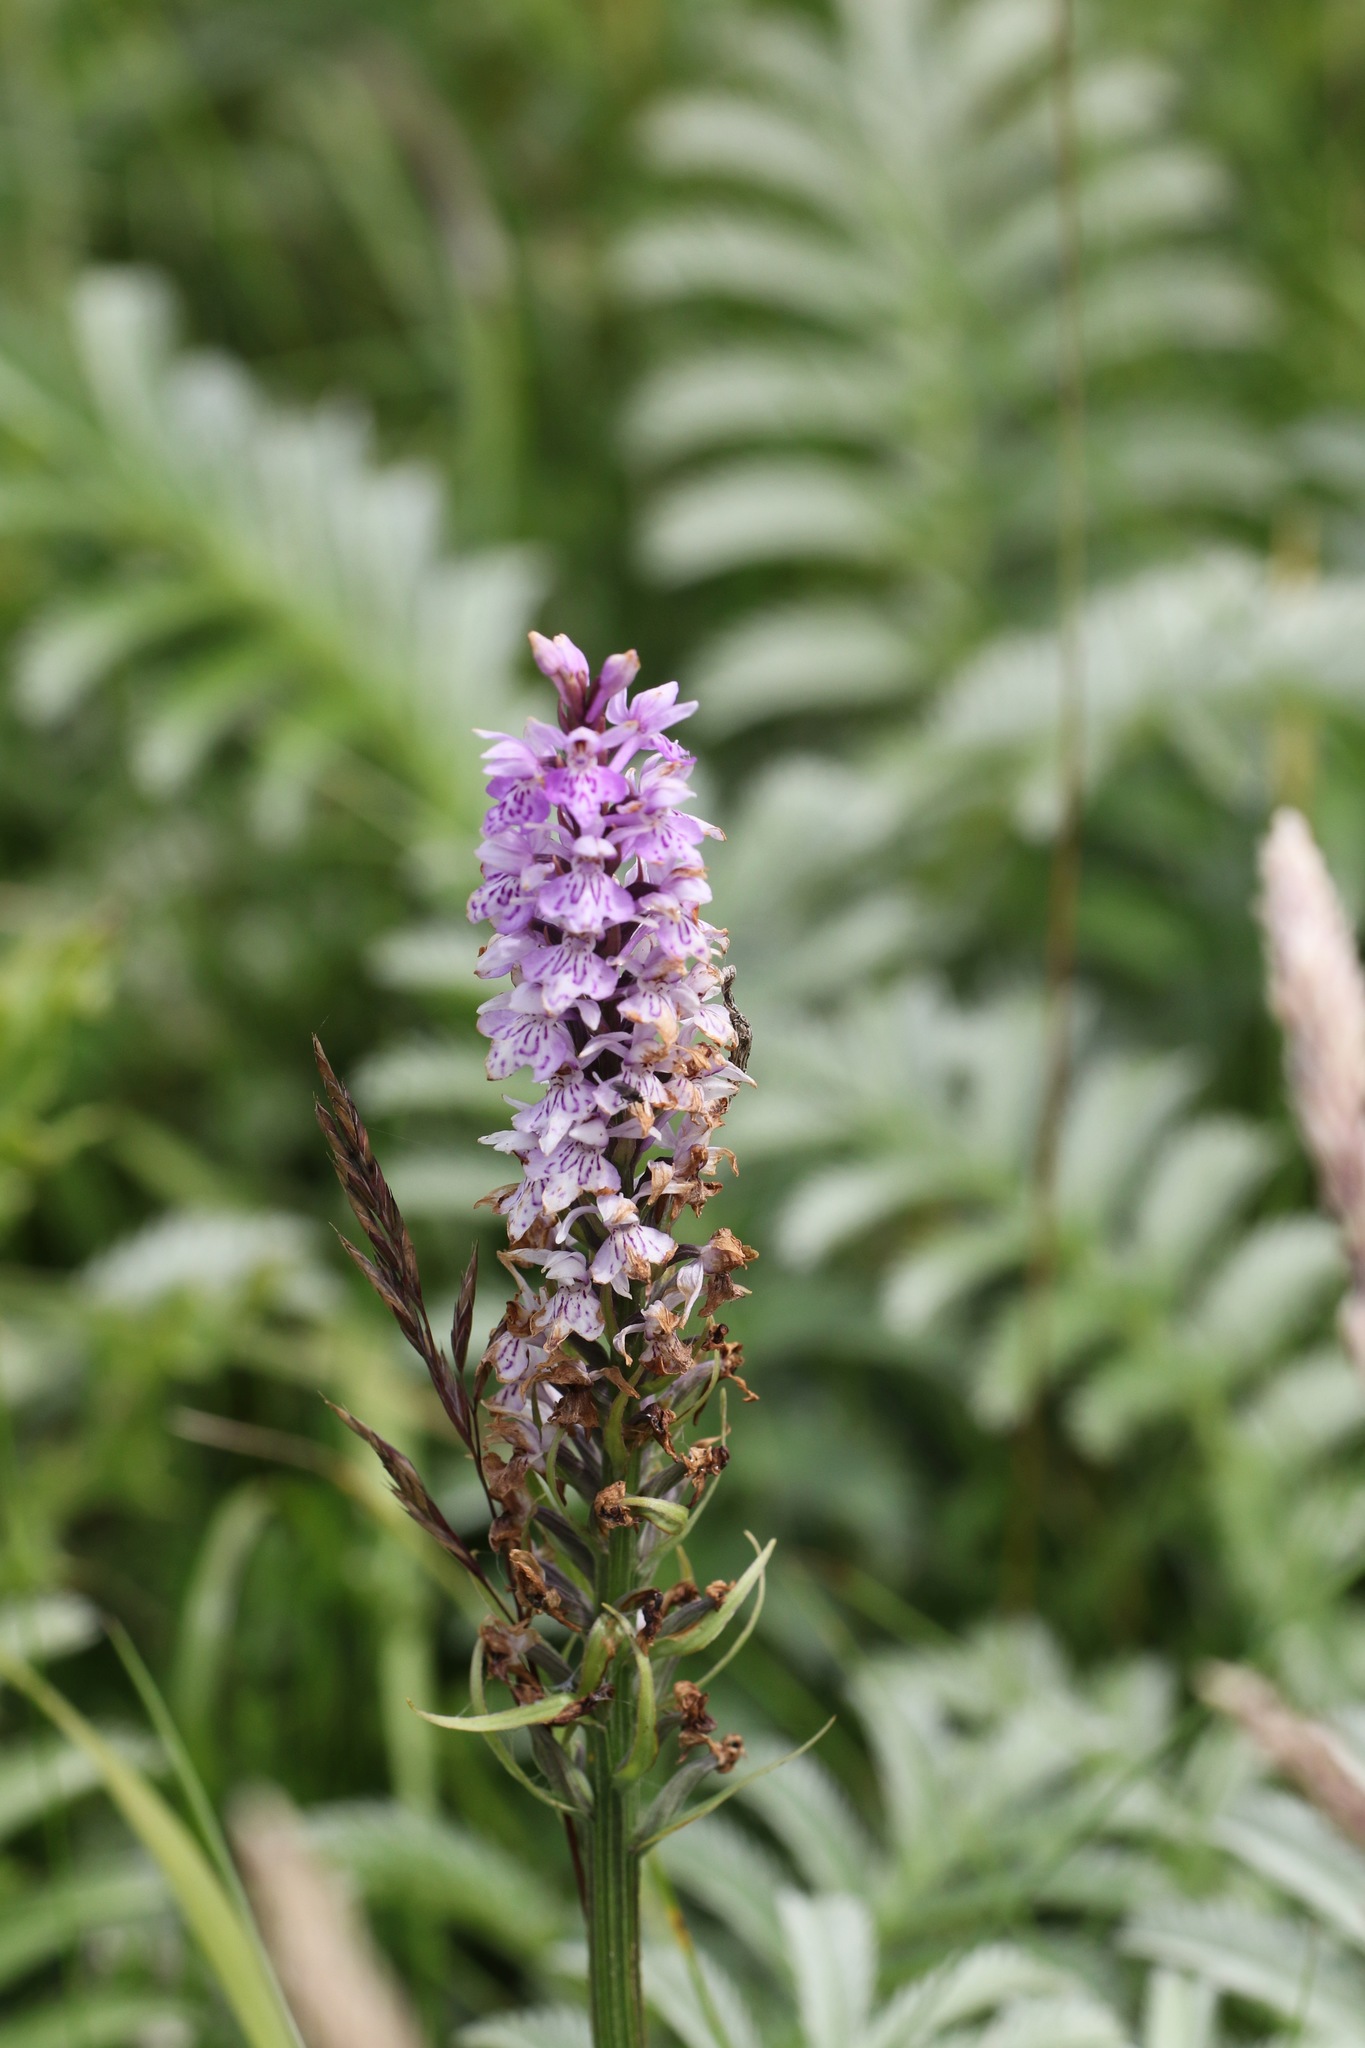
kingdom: Plantae
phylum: Tracheophyta
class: Liliopsida
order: Asparagales
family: Orchidaceae
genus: Dactylorhiza
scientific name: Dactylorhiza maculata
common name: Heath spotted-orchid
